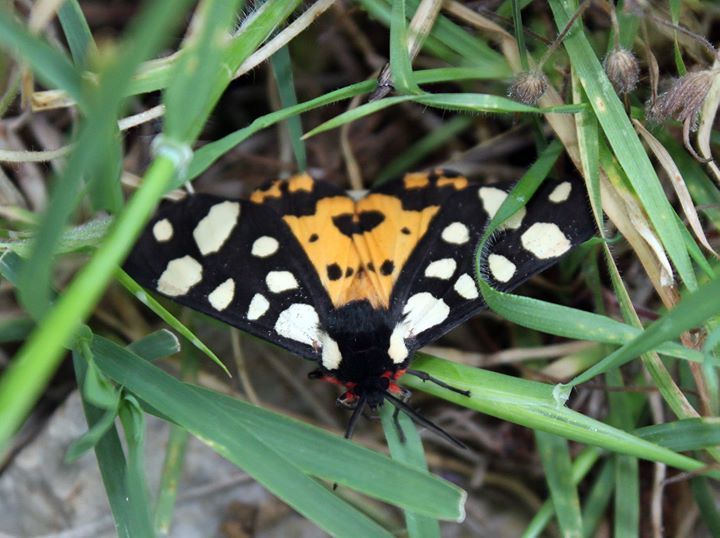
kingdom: Animalia
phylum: Arthropoda
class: Insecta
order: Lepidoptera
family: Erebidae
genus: Epicallia
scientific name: Epicallia villica
